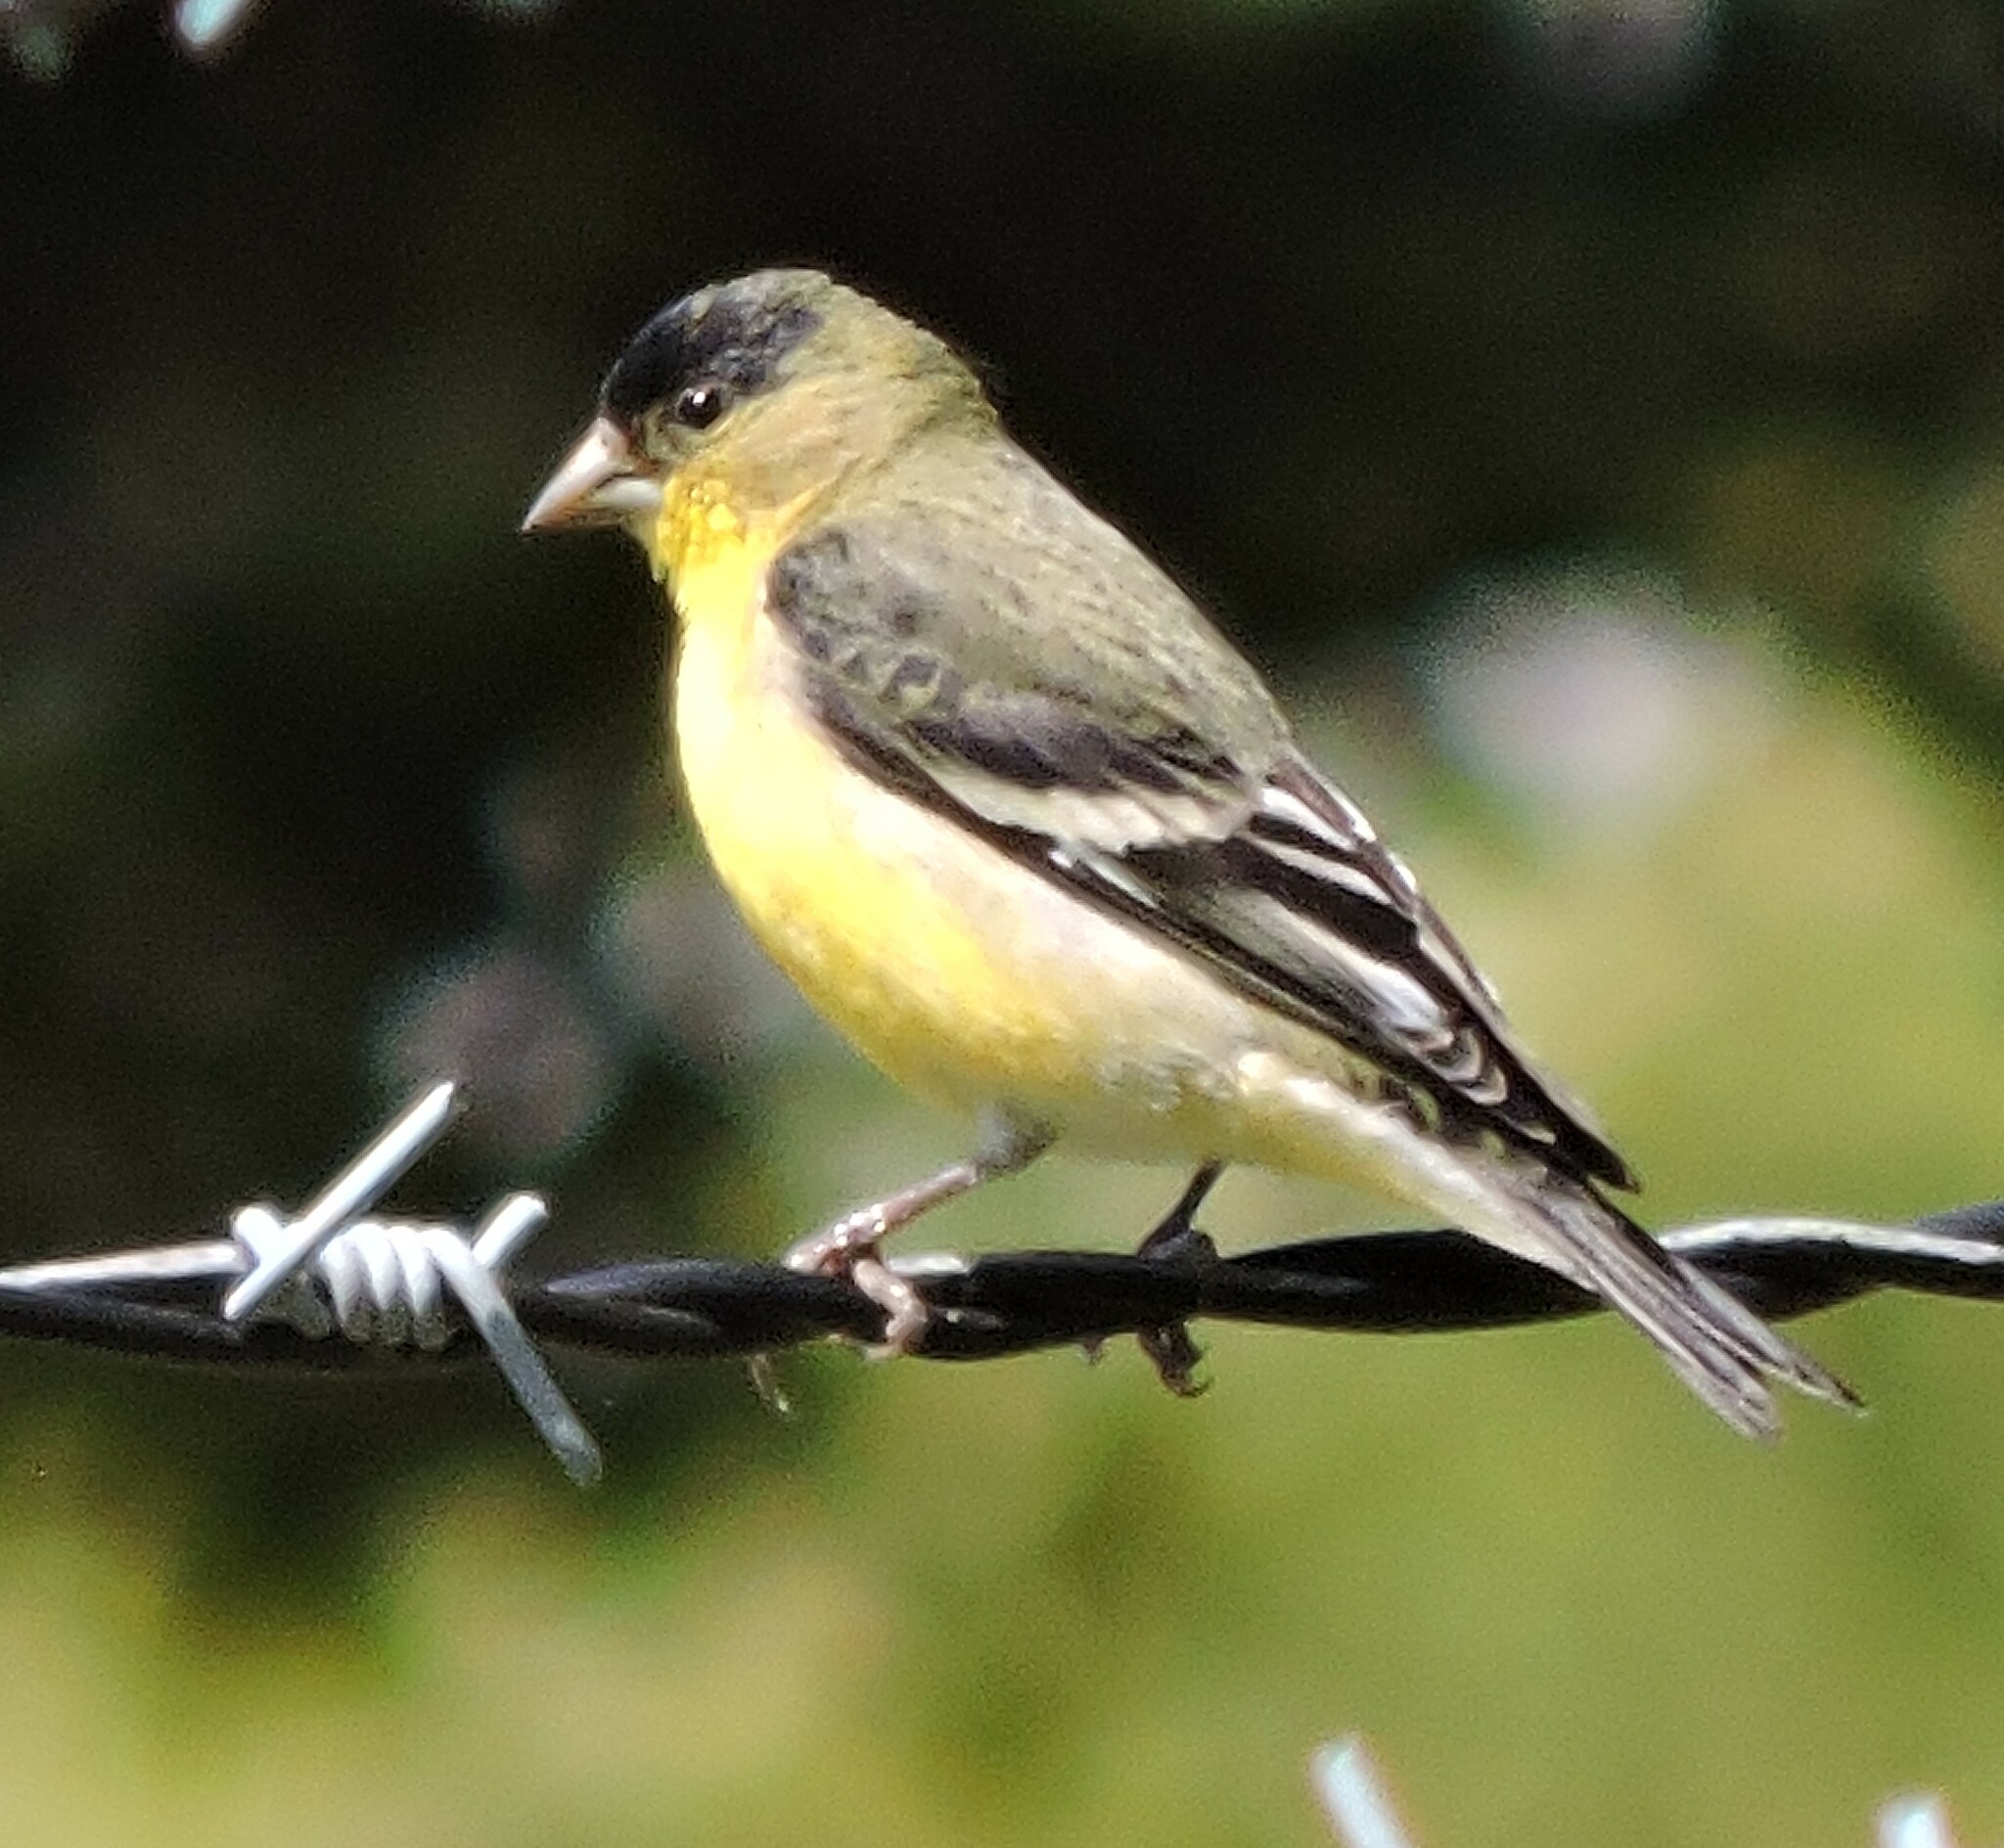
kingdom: Animalia
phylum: Chordata
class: Aves
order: Passeriformes
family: Fringillidae
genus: Spinus
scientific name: Spinus psaltria
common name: Lesser goldfinch
